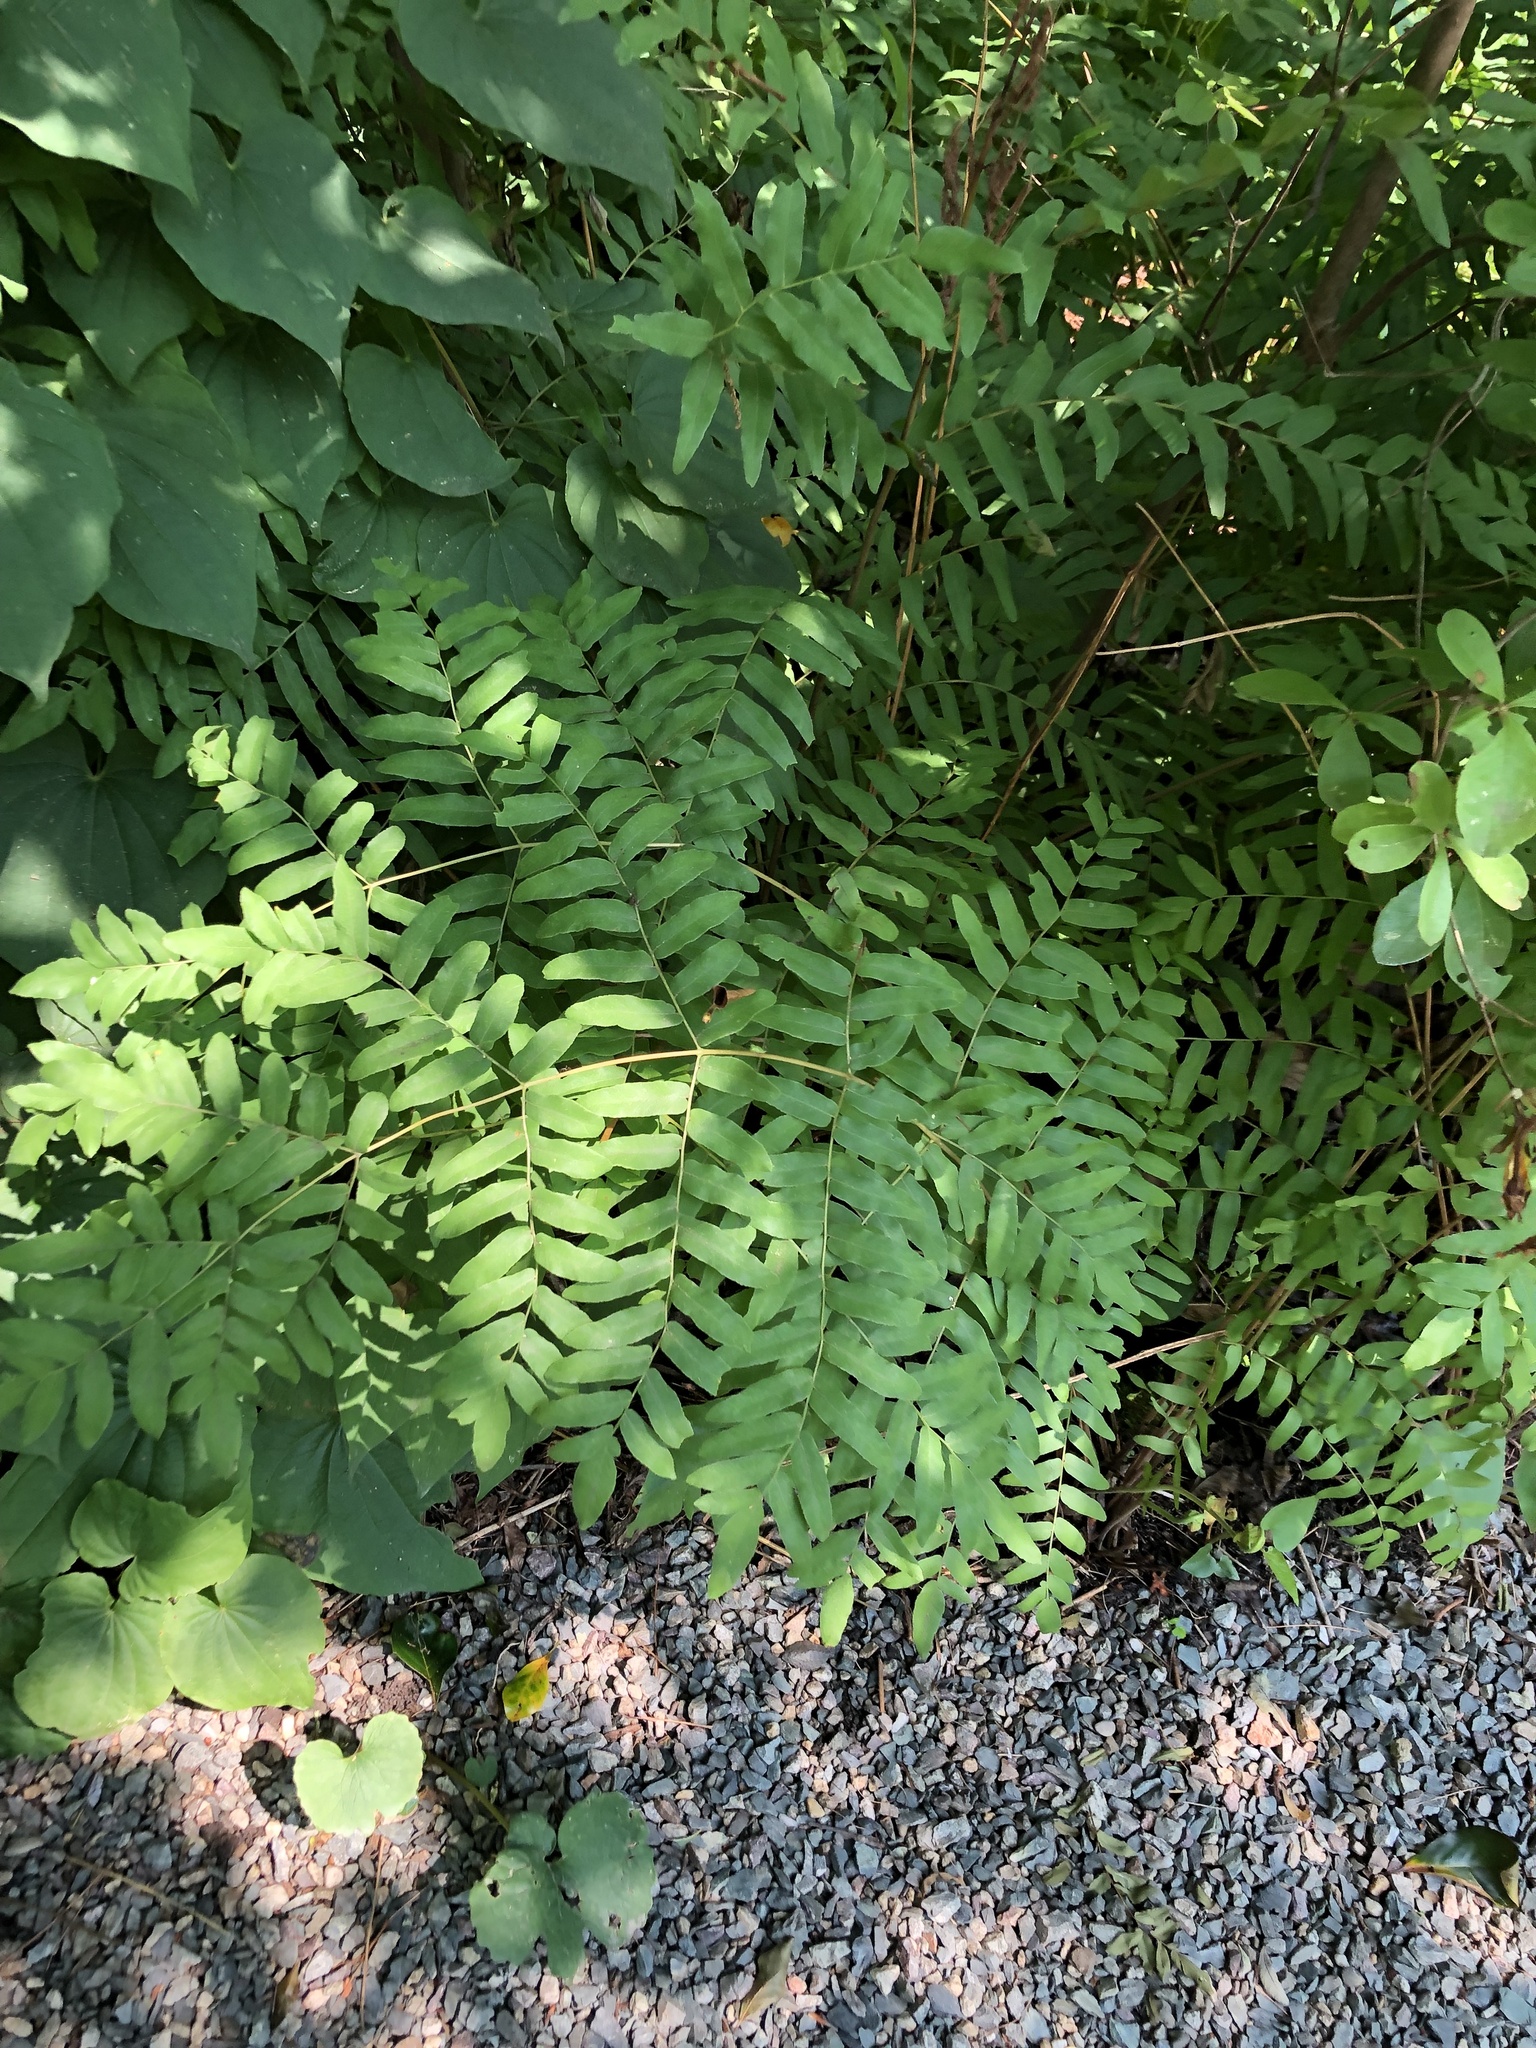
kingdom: Plantae
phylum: Tracheophyta
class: Polypodiopsida
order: Osmundales
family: Osmundaceae
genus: Osmunda
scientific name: Osmunda spectabilis
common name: American royal fern
